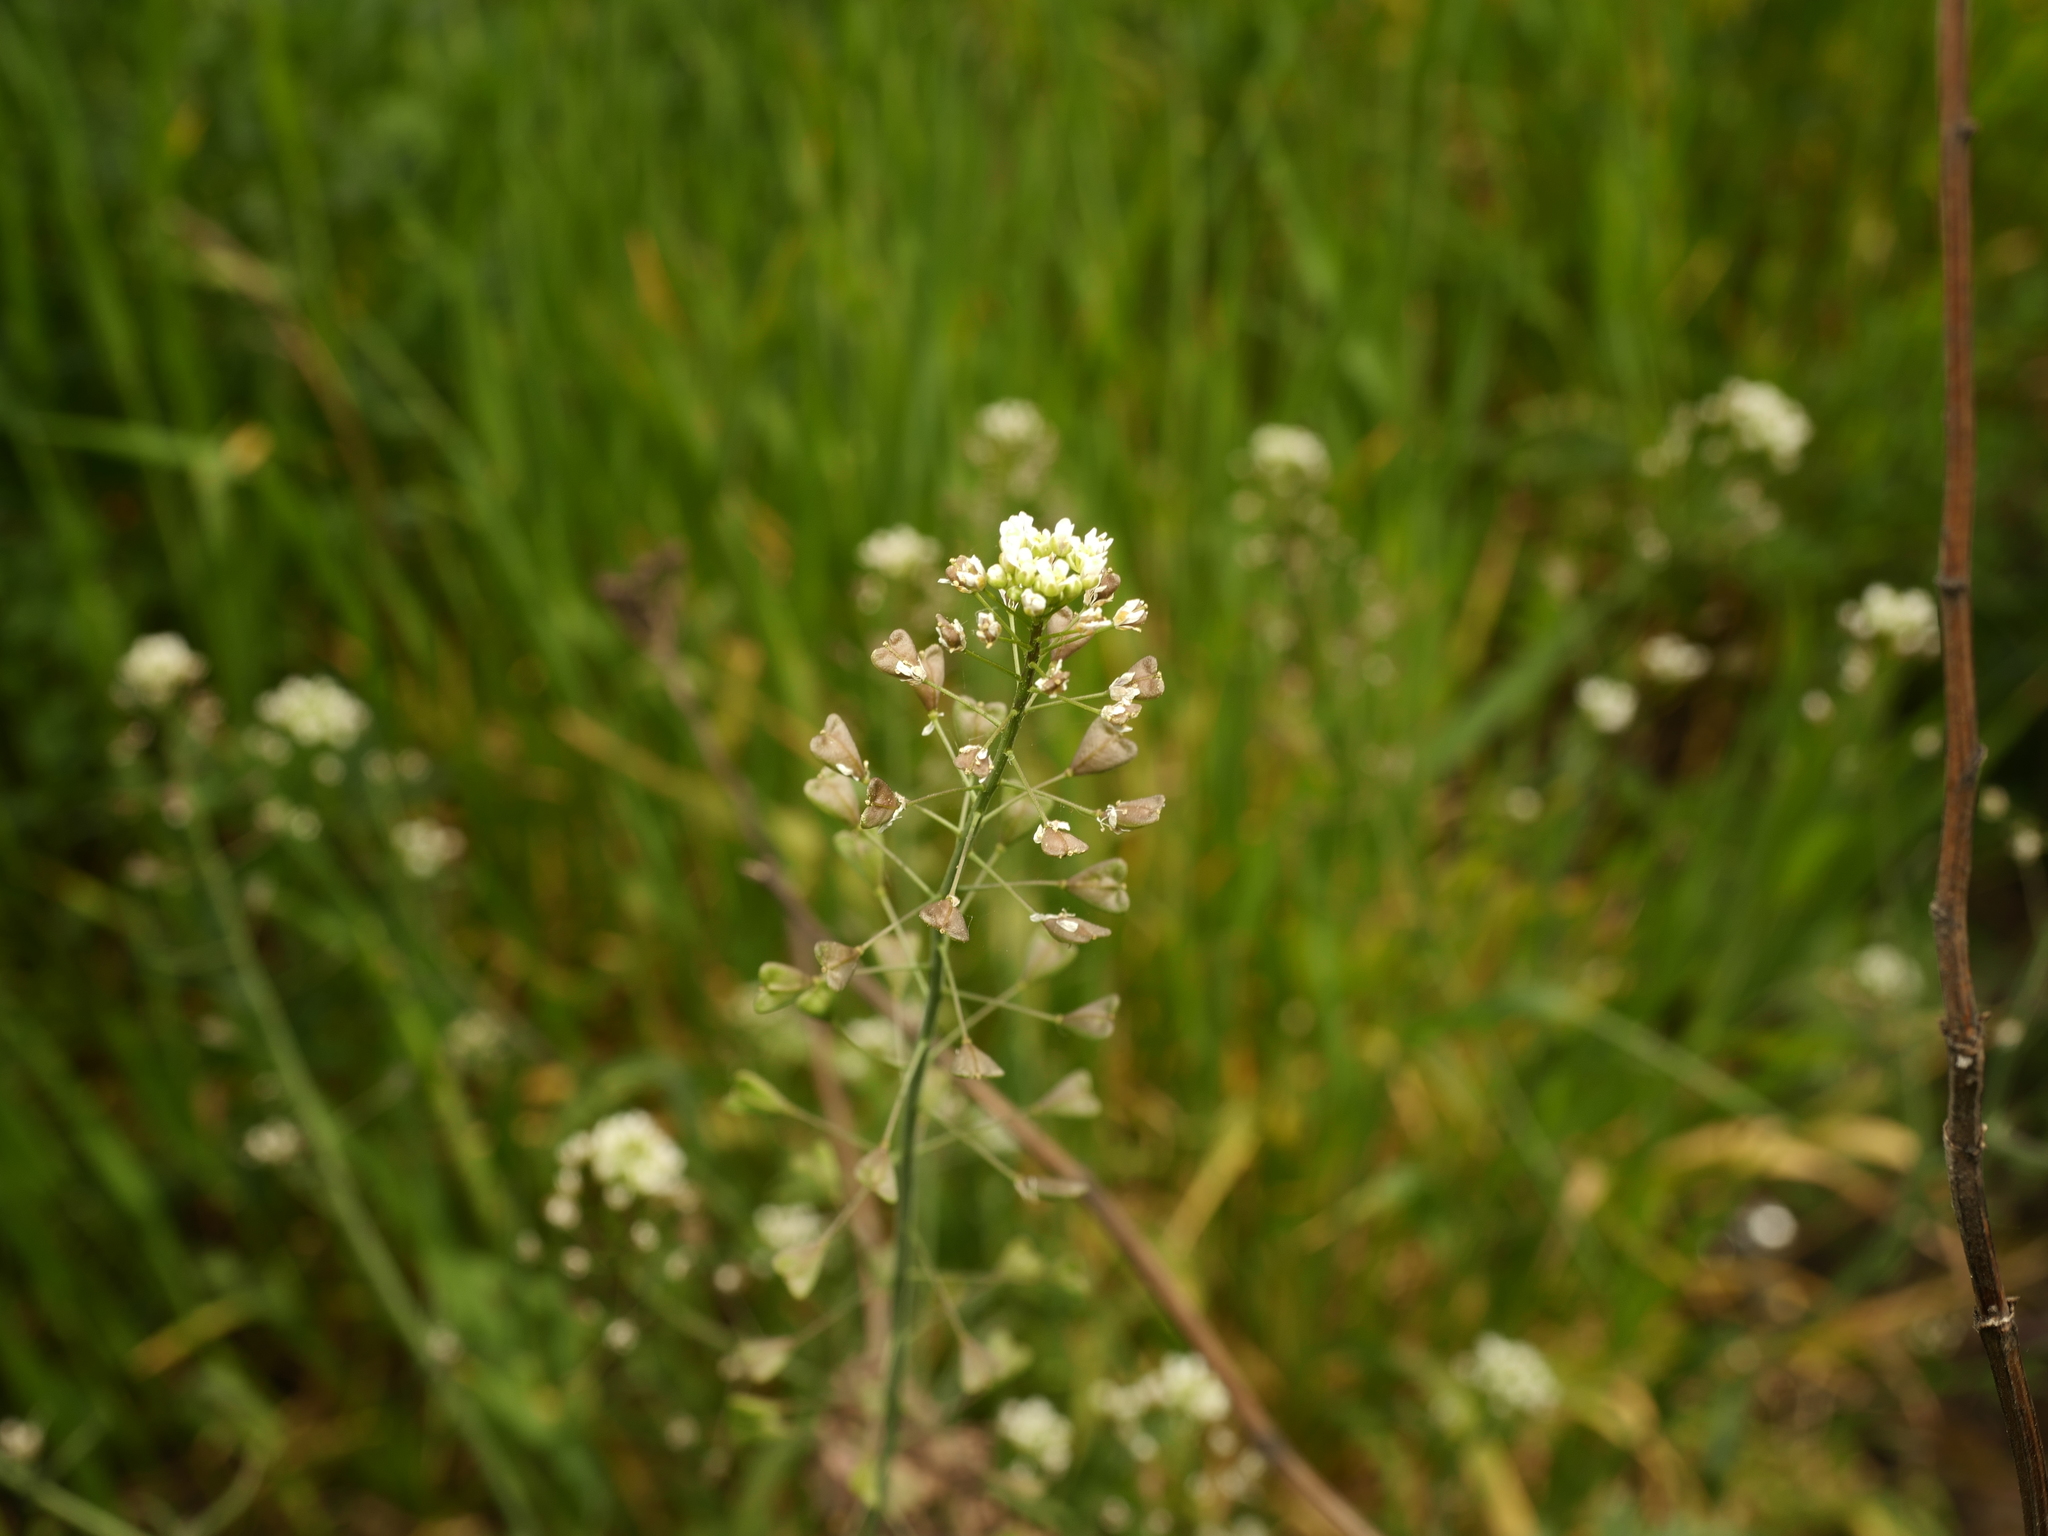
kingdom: Plantae
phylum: Tracheophyta
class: Magnoliopsida
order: Brassicales
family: Brassicaceae
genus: Capsella
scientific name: Capsella bursa-pastoris
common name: Shepherd's purse
